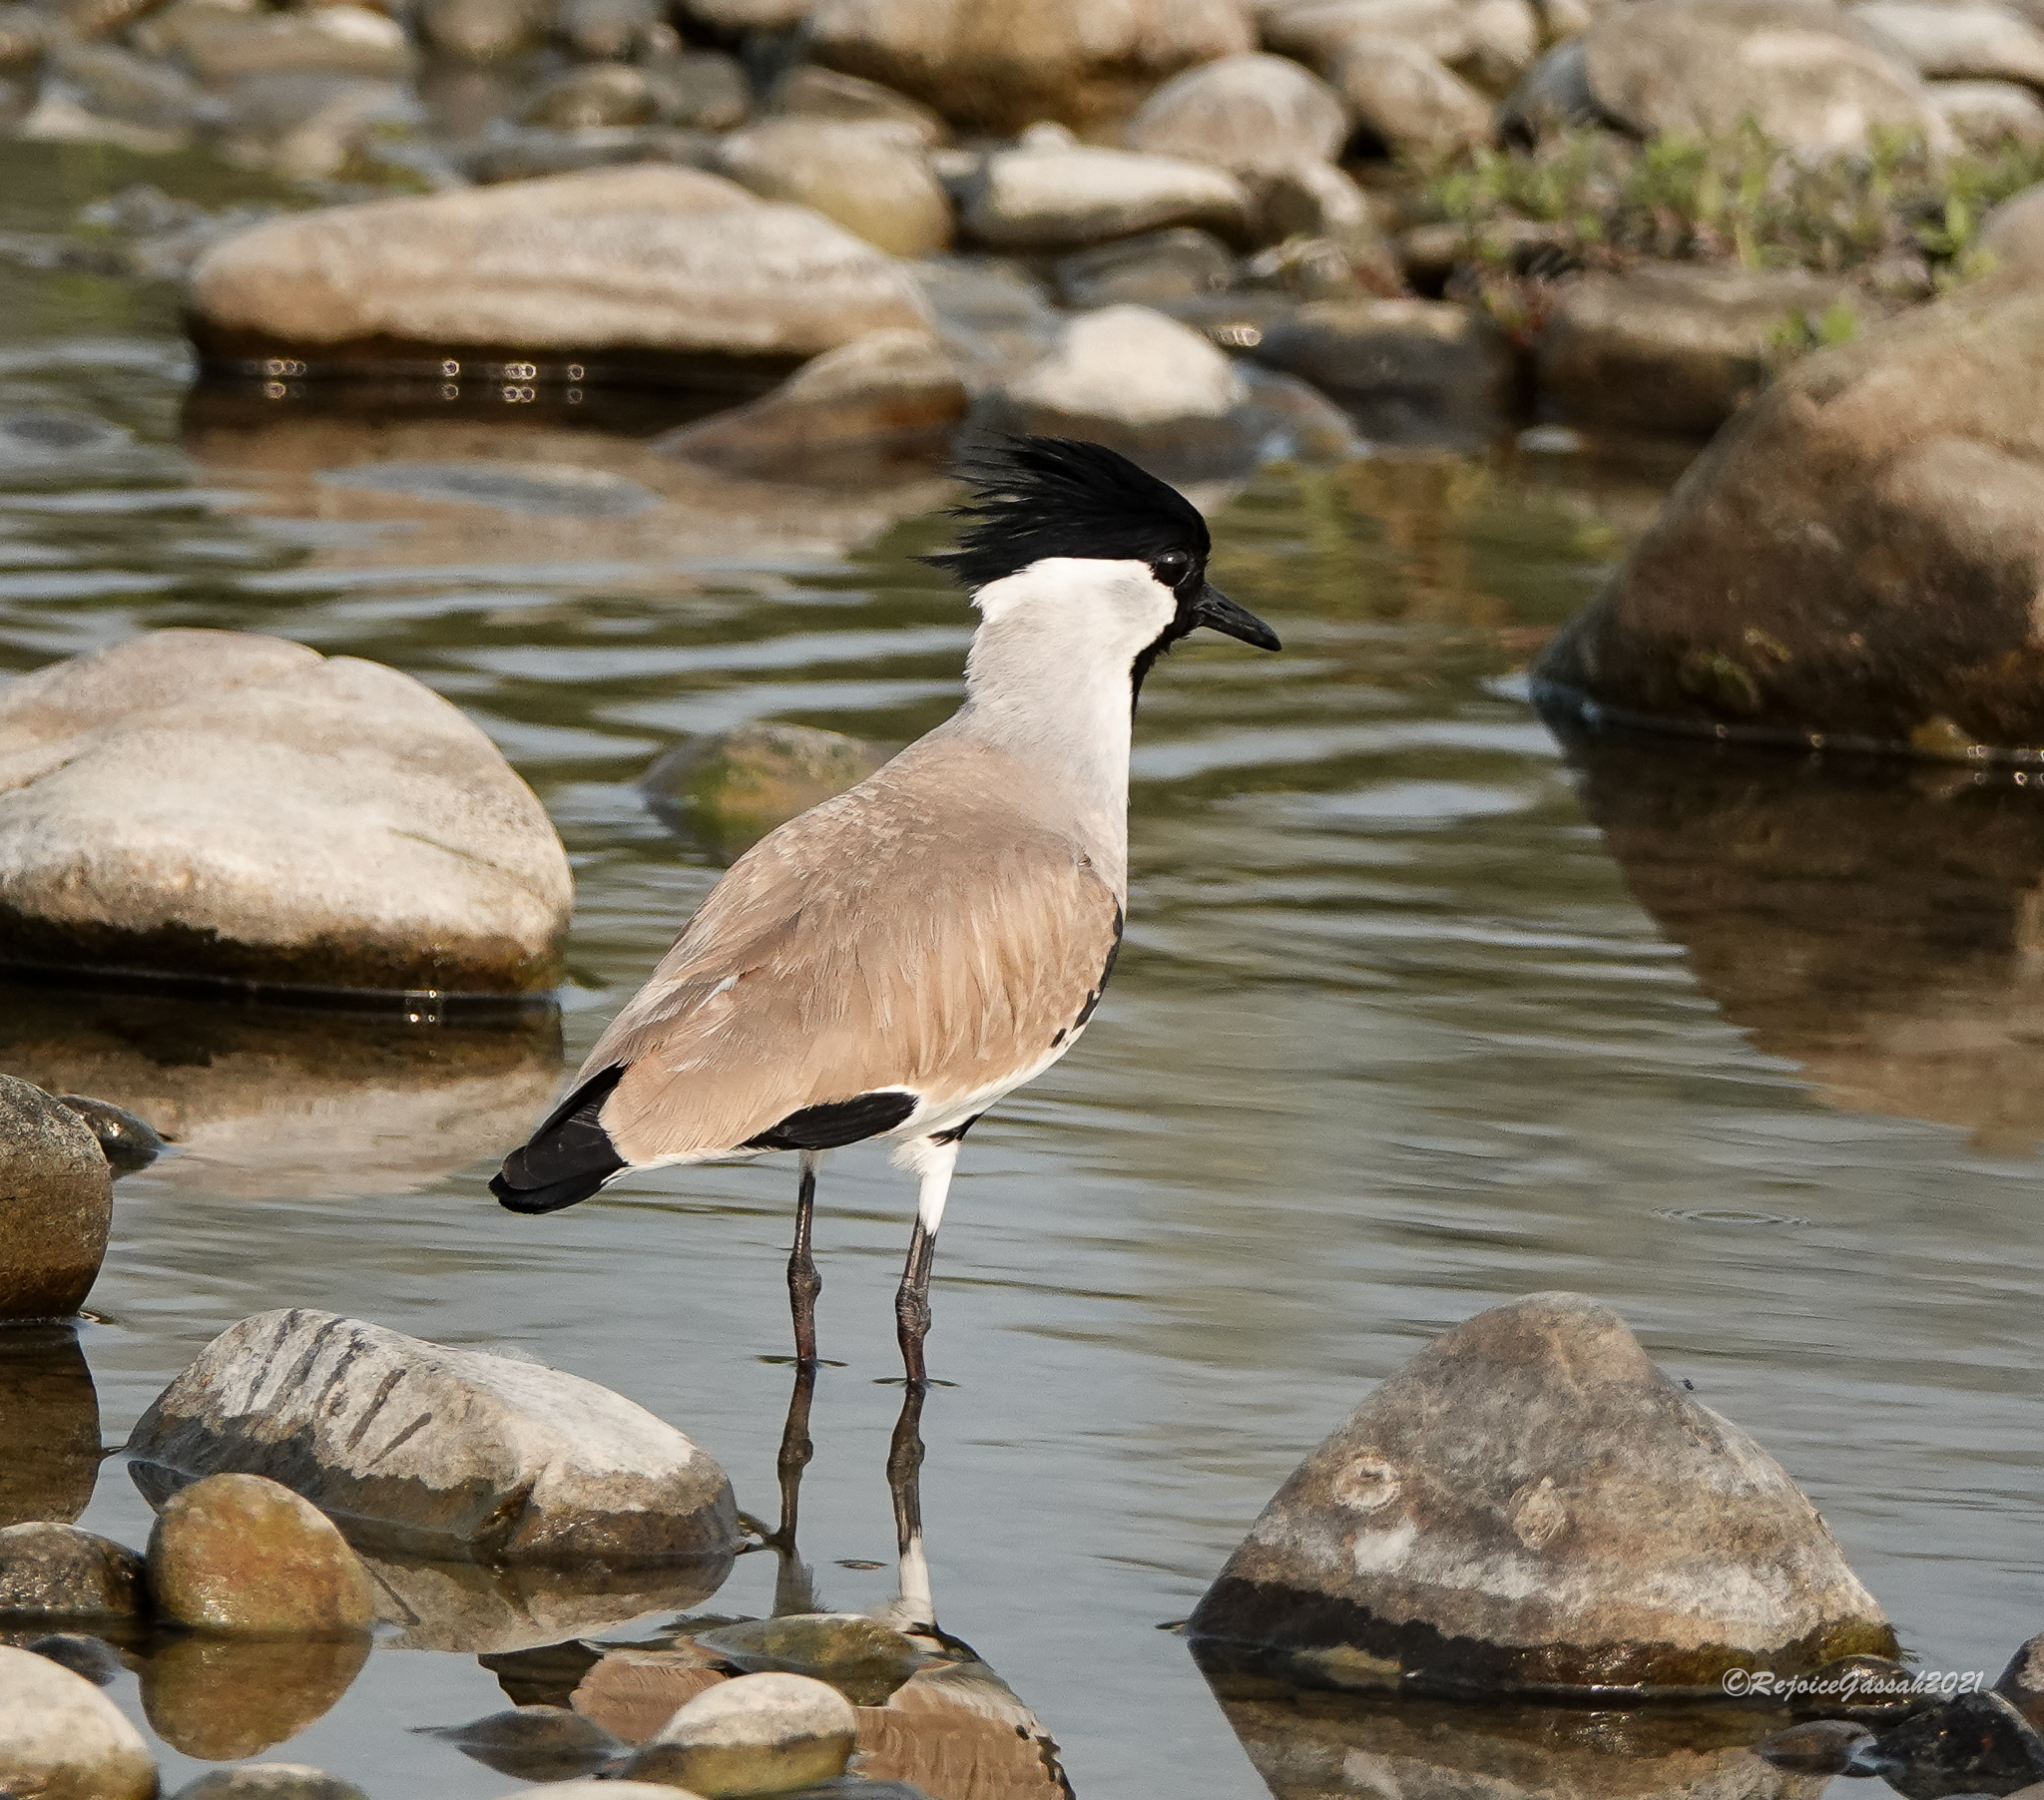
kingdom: Animalia
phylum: Chordata
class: Aves
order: Charadriiformes
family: Charadriidae
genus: Vanellus
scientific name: Vanellus duvaucelii
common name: River lapwing
